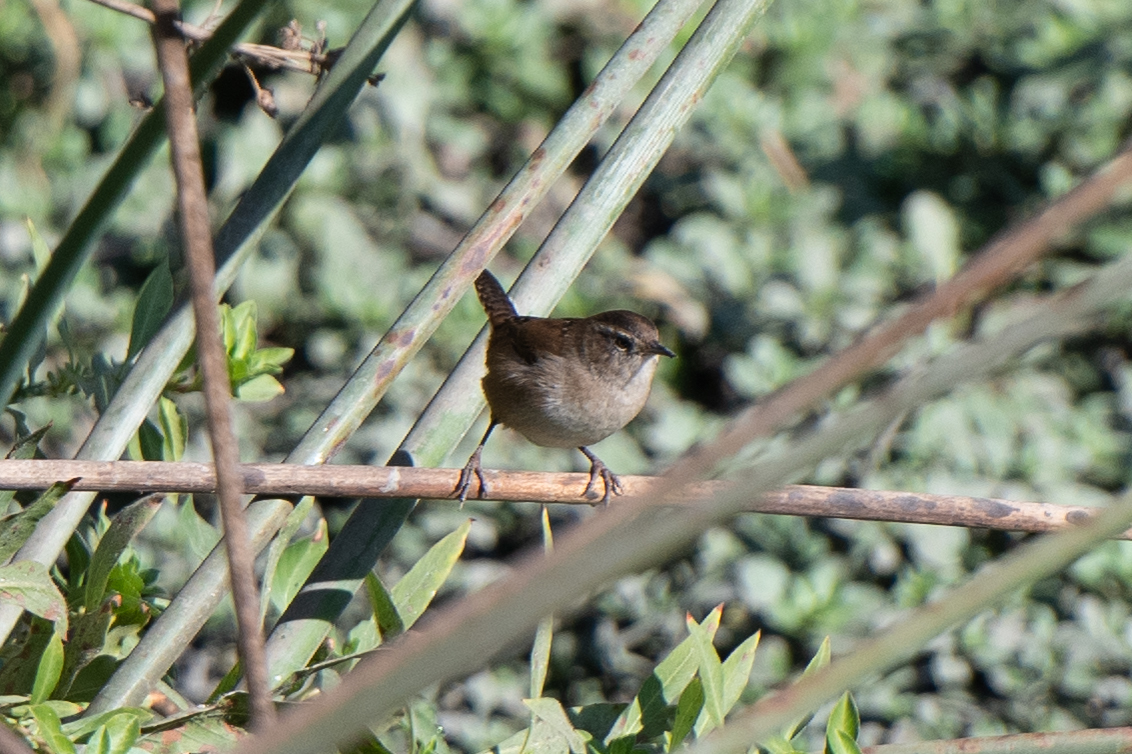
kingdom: Animalia
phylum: Chordata
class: Aves
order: Passeriformes
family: Troglodytidae
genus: Cistothorus
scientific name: Cistothorus palustris
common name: Marsh wren
